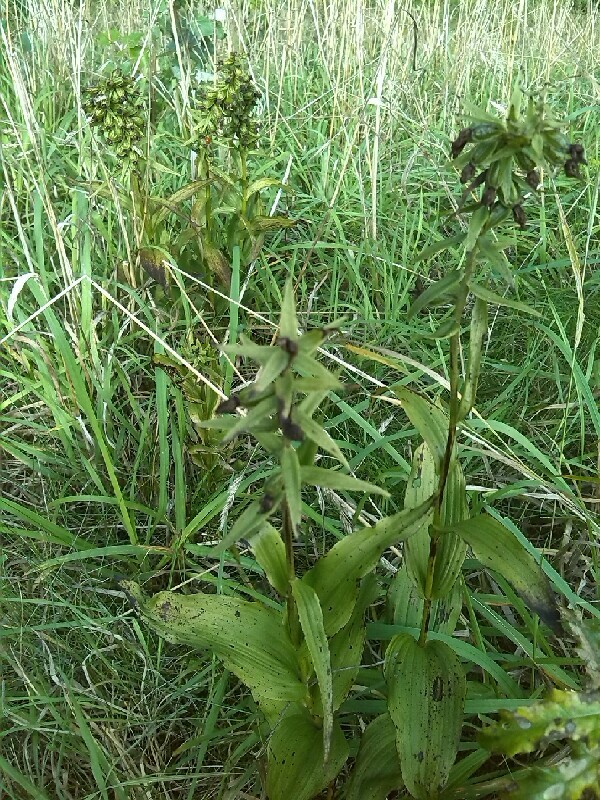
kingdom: Plantae
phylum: Tracheophyta
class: Liliopsida
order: Asparagales
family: Orchidaceae
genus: Epipactis
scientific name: Epipactis helleborine
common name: Broad-leaved helleborine
